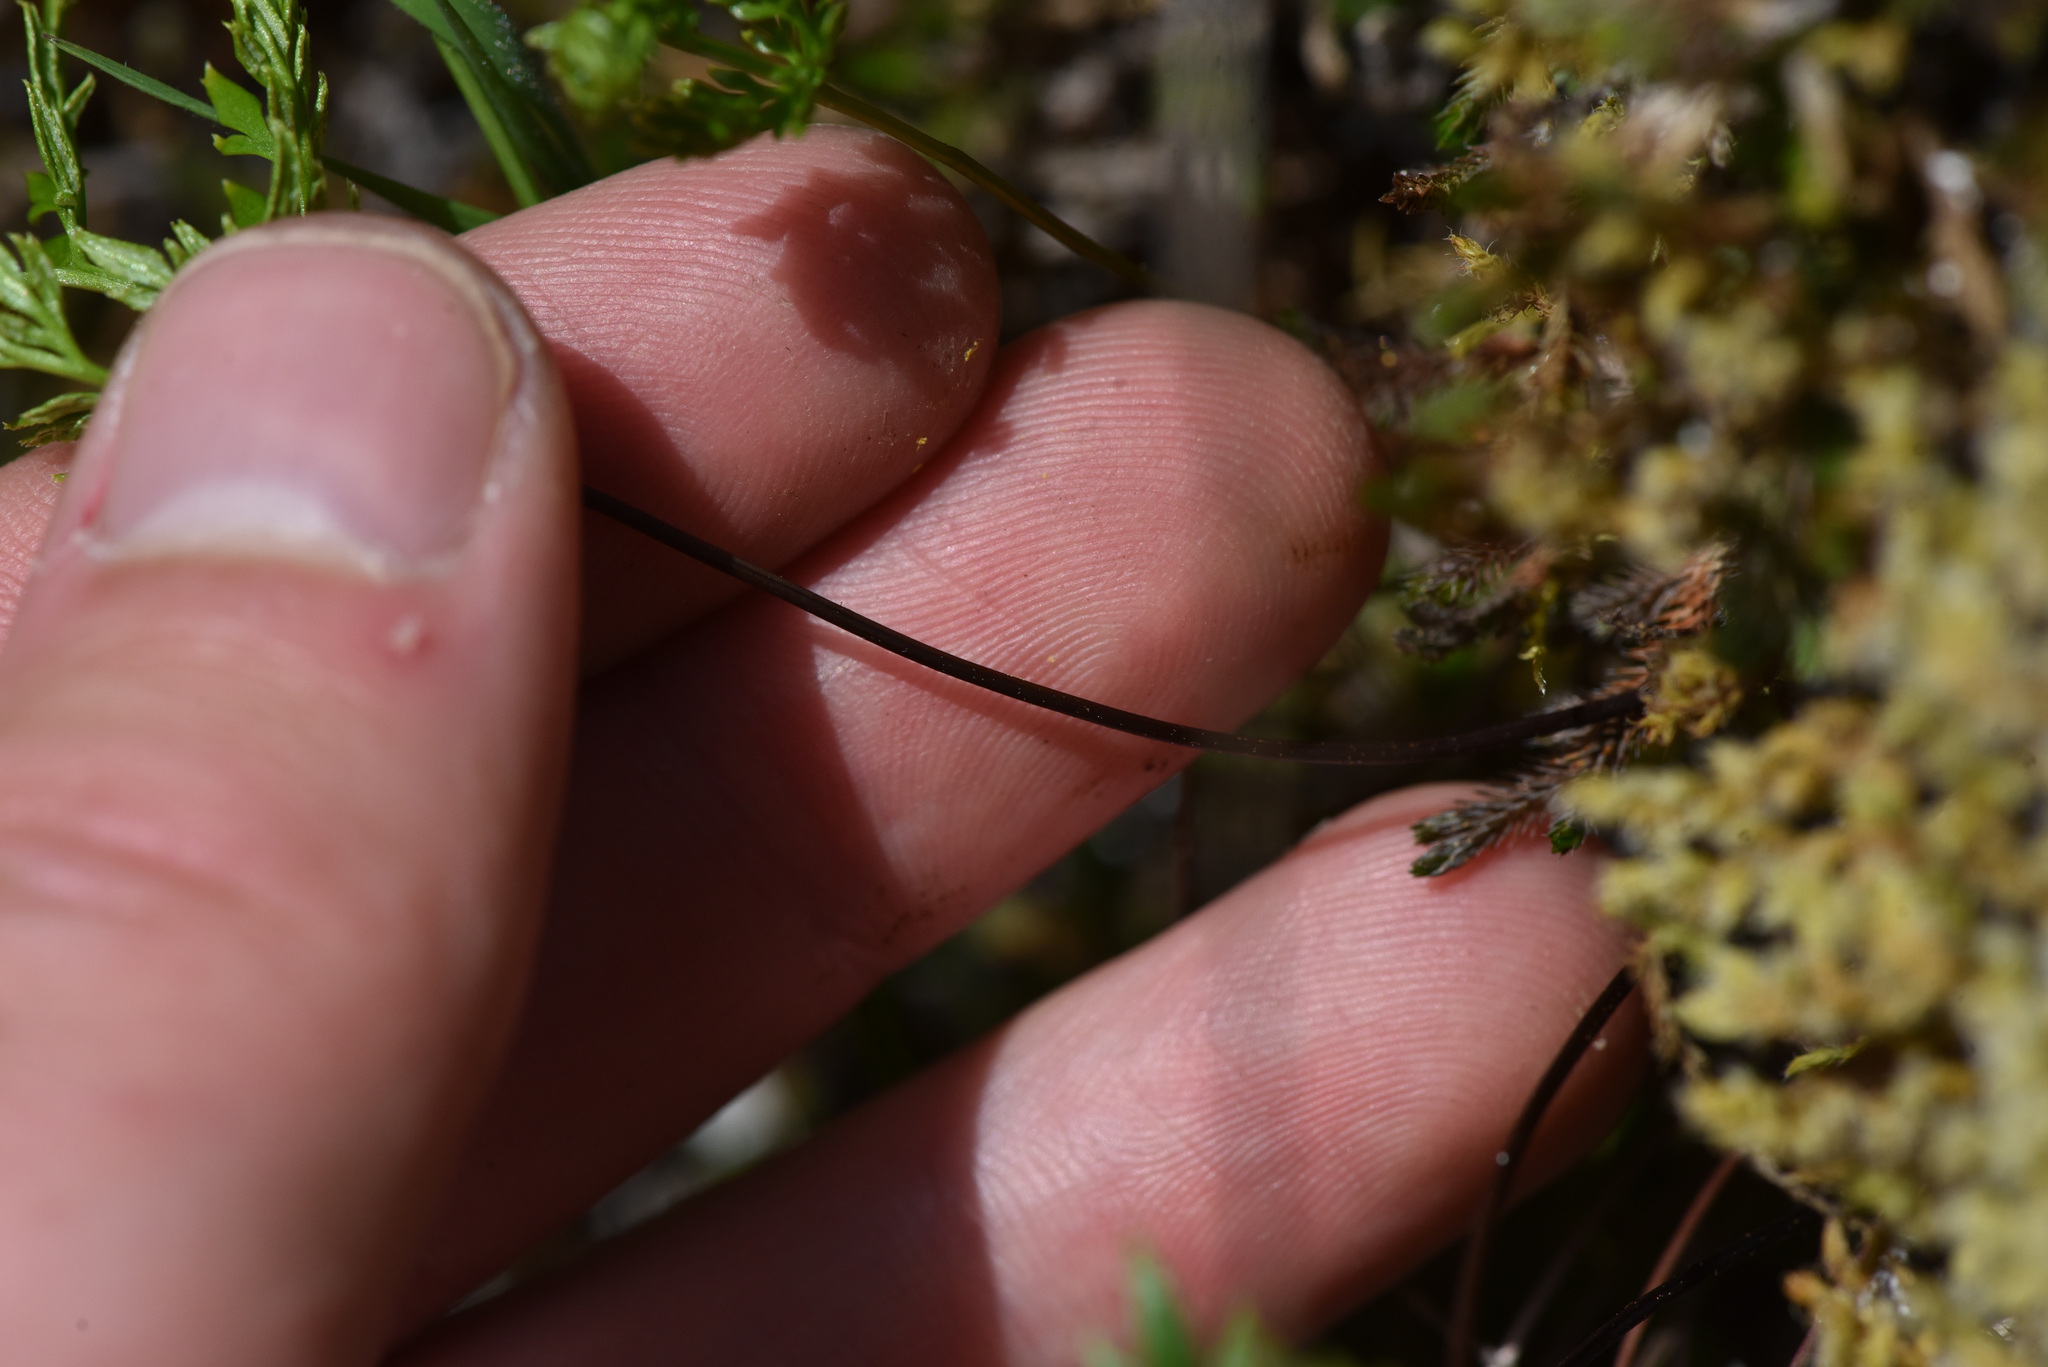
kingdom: Plantae
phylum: Tracheophyta
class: Polypodiopsida
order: Polypodiales
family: Pteridaceae
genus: Aspidotis
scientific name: Aspidotis densa
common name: Indian's dream
